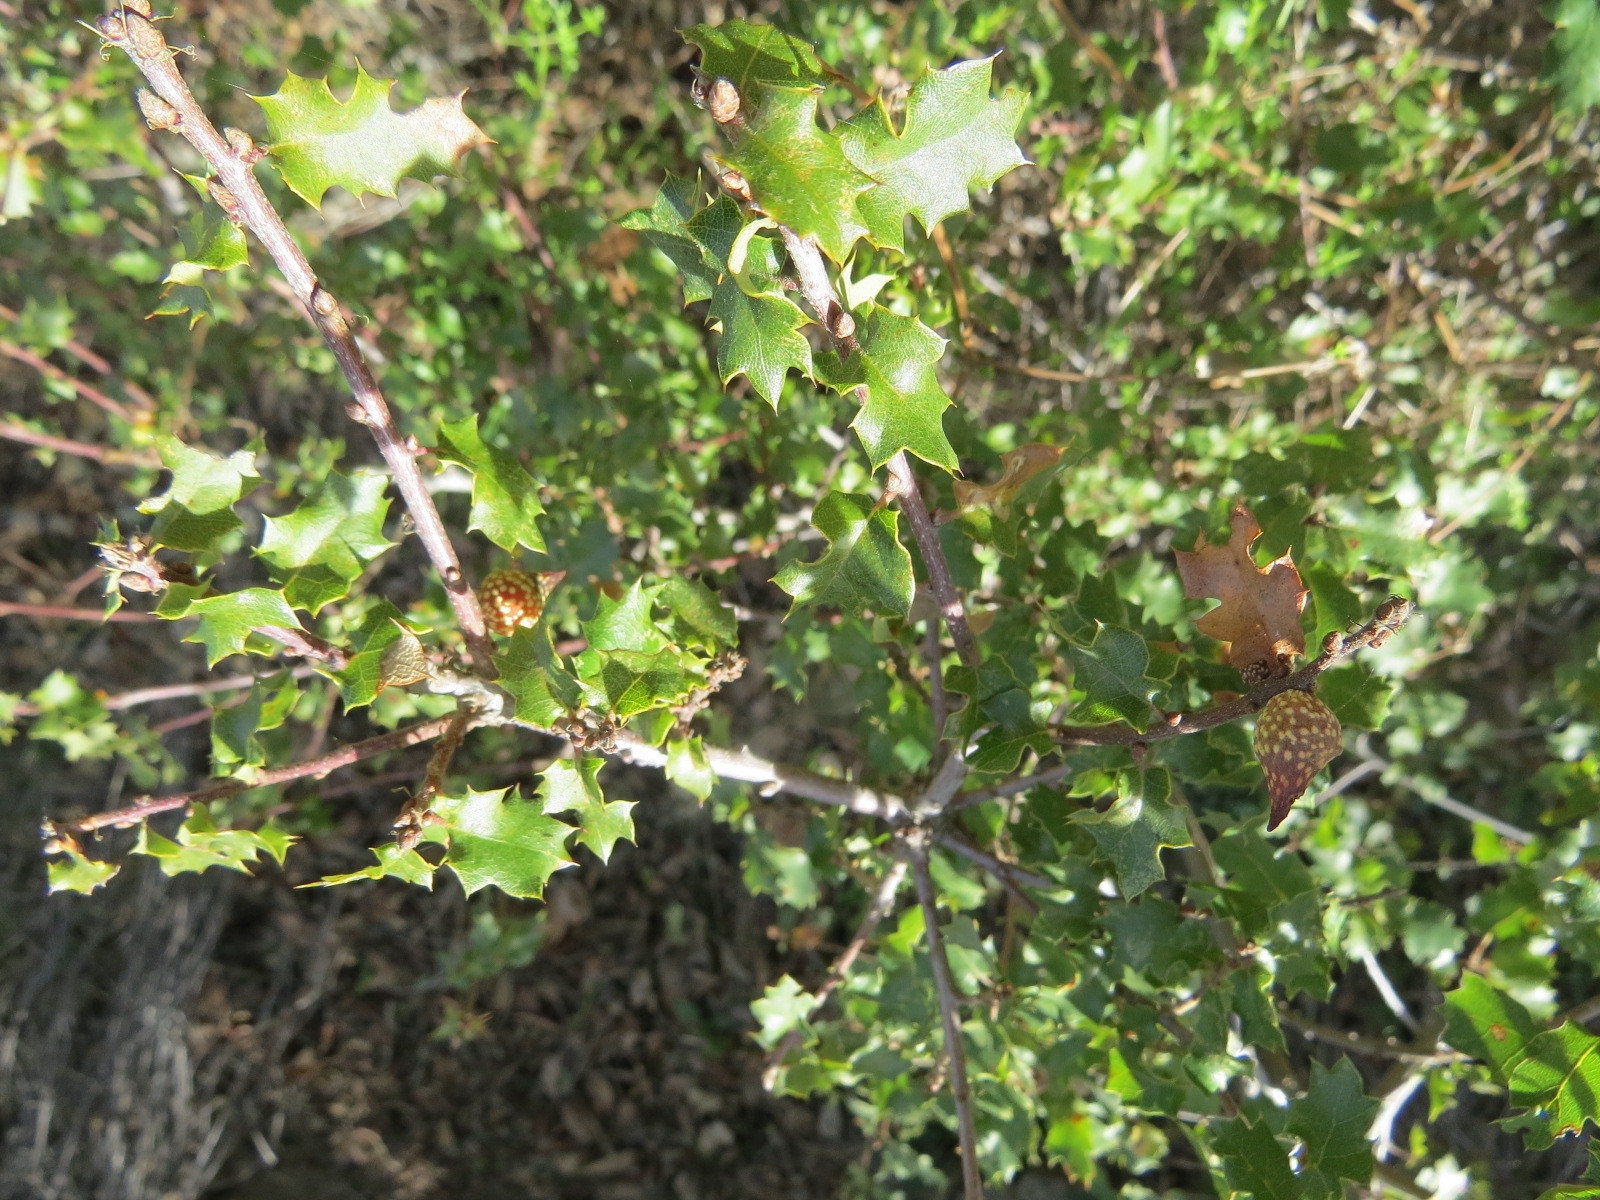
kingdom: Animalia
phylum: Arthropoda
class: Insecta
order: Hymenoptera
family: Cynipidae
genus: Burnettweldia
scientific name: Burnettweldia
